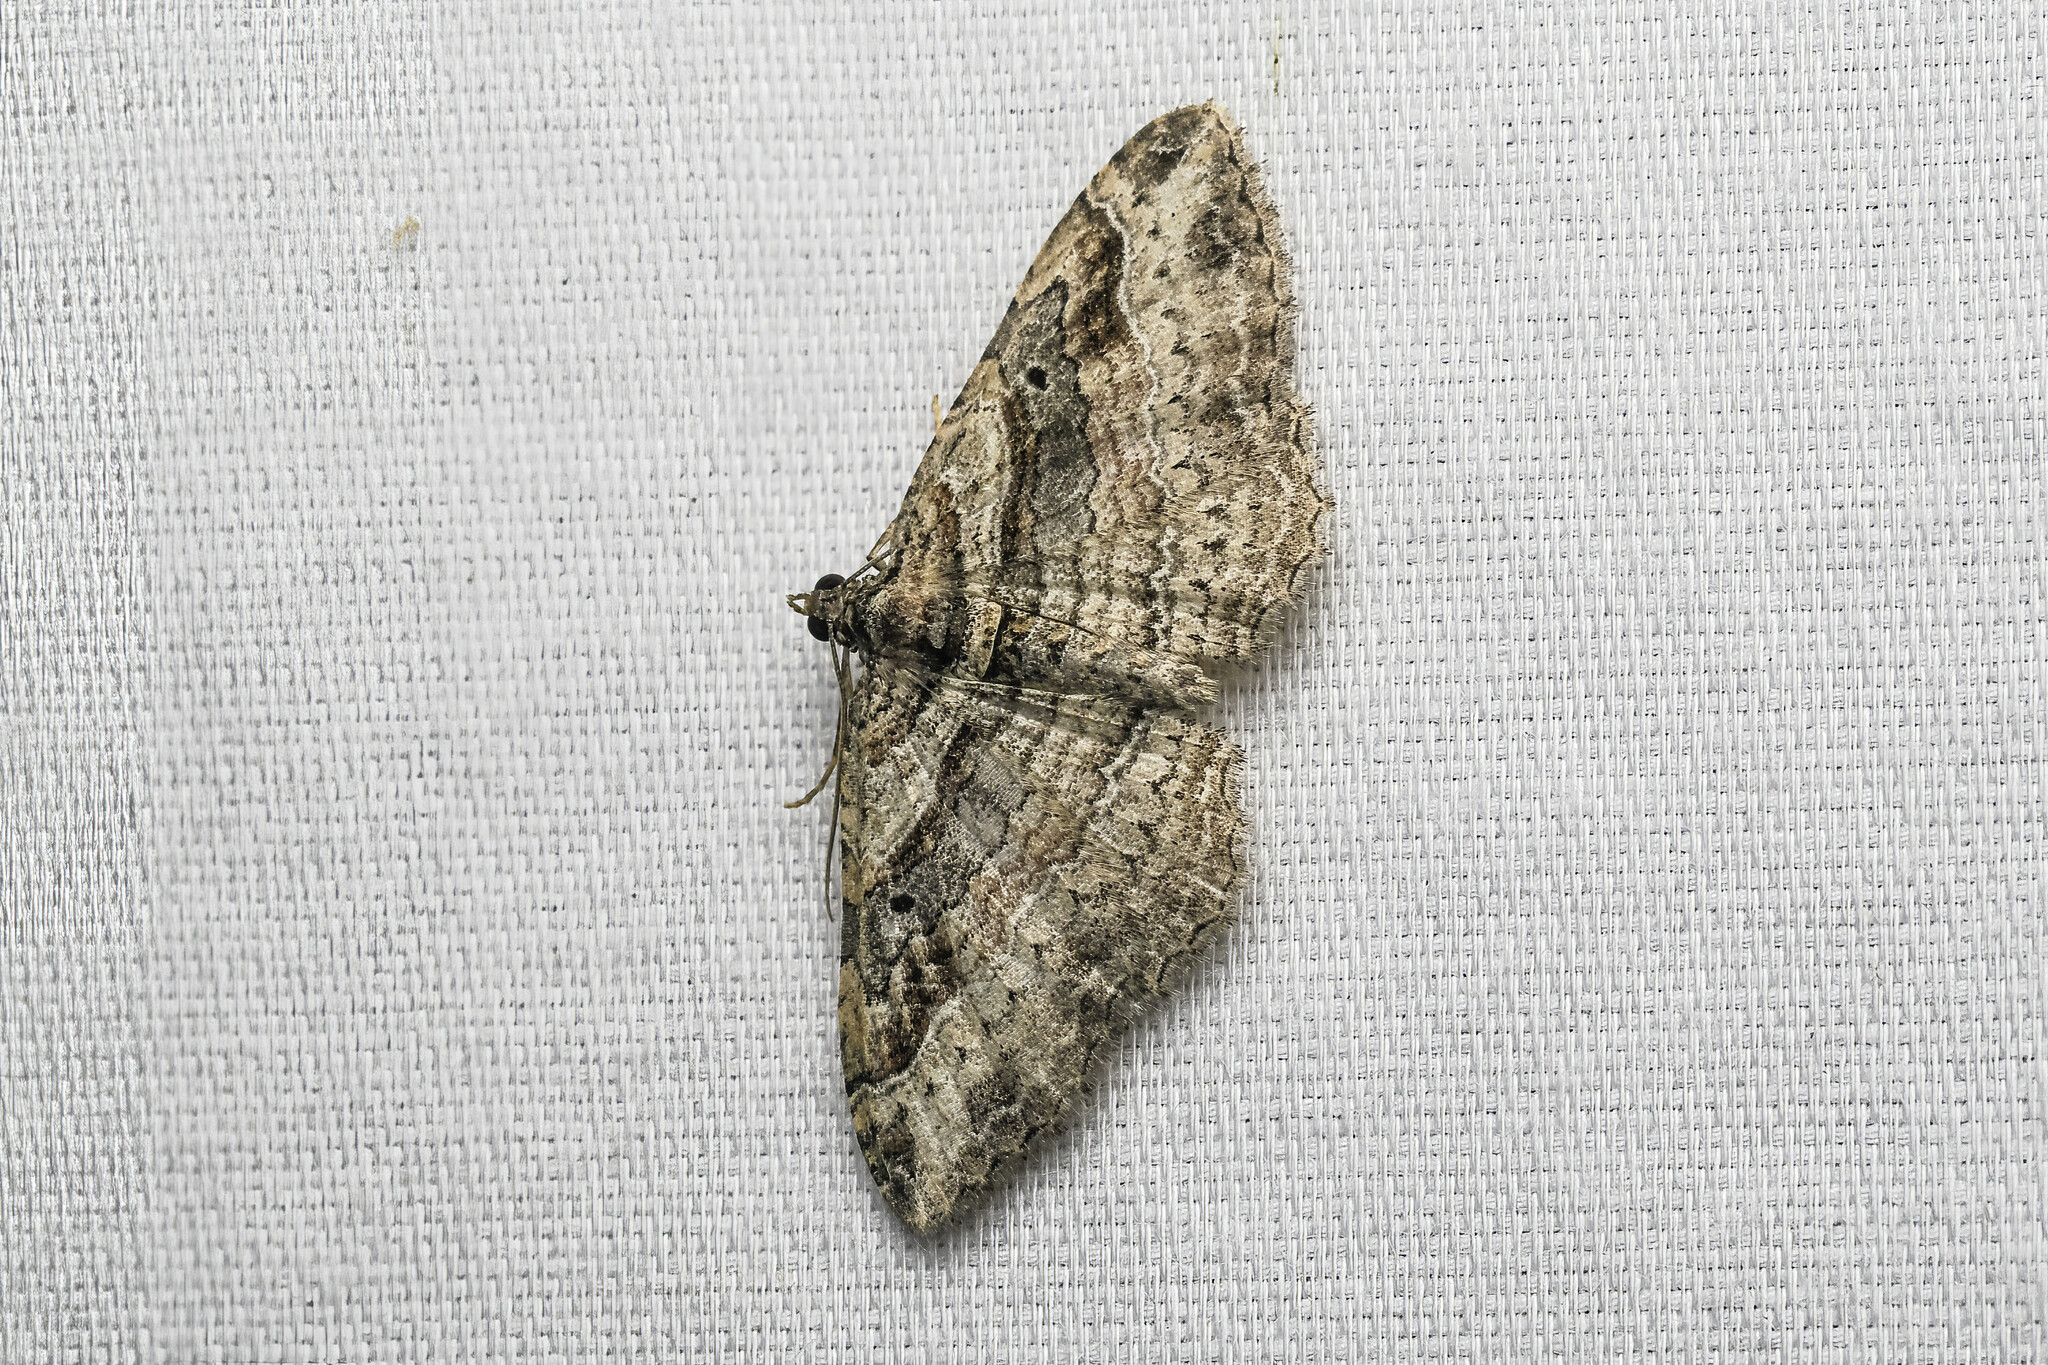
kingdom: Animalia
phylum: Arthropoda
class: Insecta
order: Lepidoptera
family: Geometridae
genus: Costaconvexa
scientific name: Costaconvexa centrostrigaria
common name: Bent-line carpet
